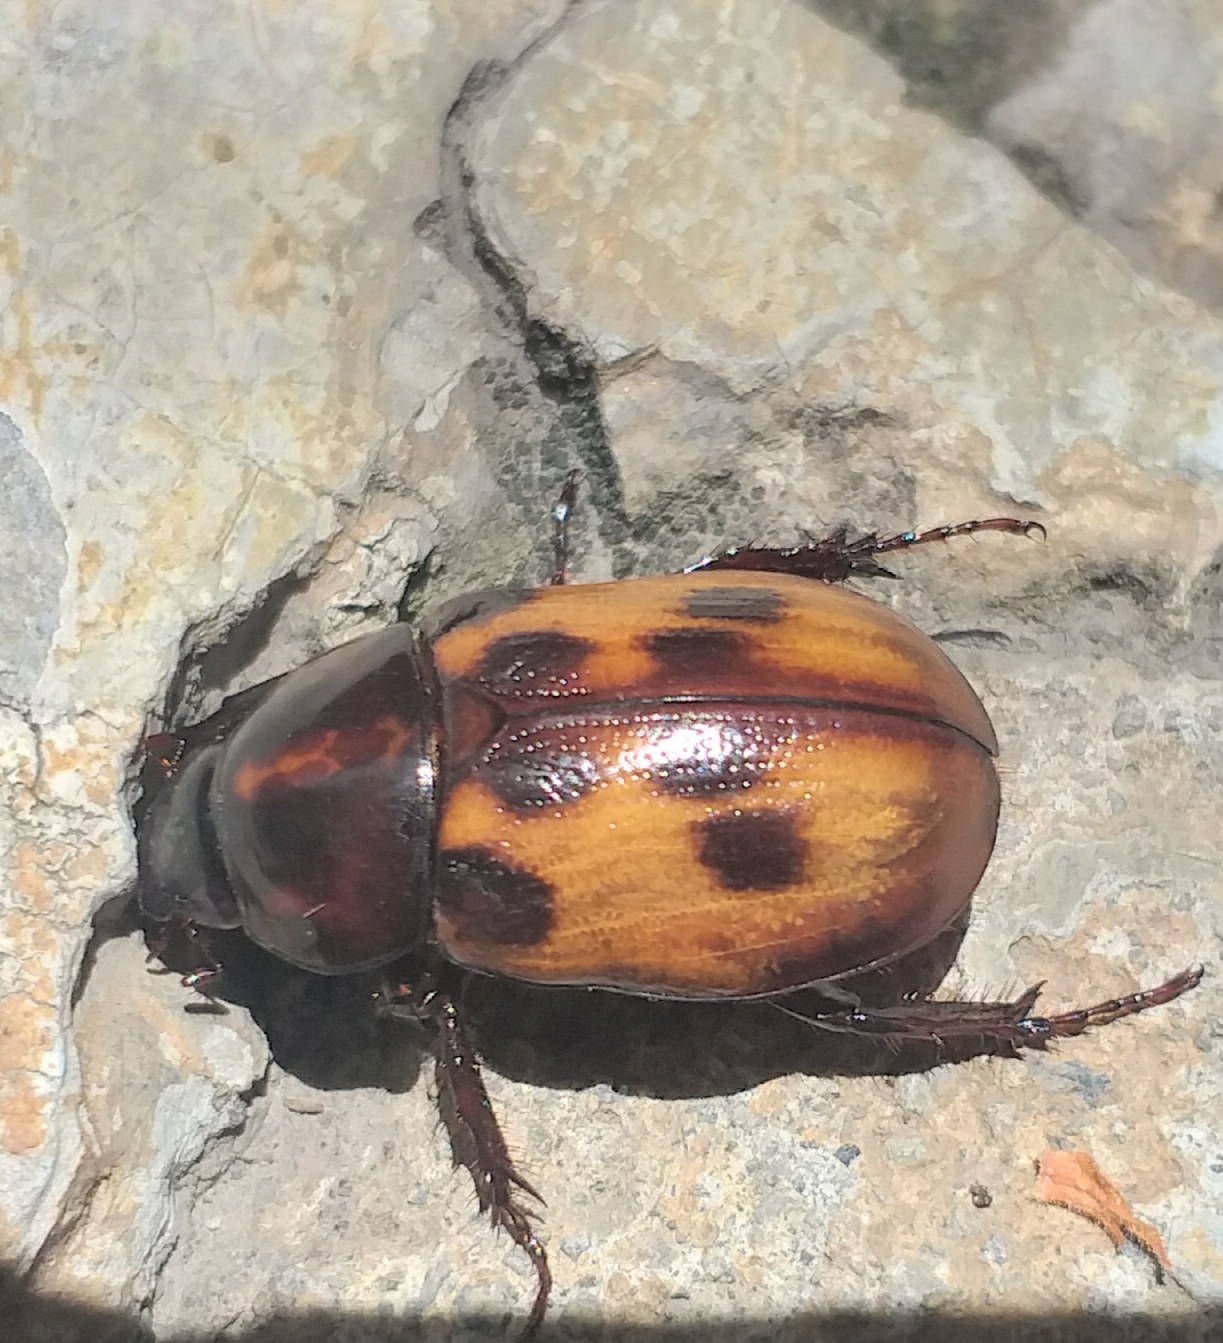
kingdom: Animalia
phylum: Arthropoda
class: Insecta
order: Coleoptera
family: Scarabaeidae
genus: Cyclocephala
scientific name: Cyclocephala deceptor
